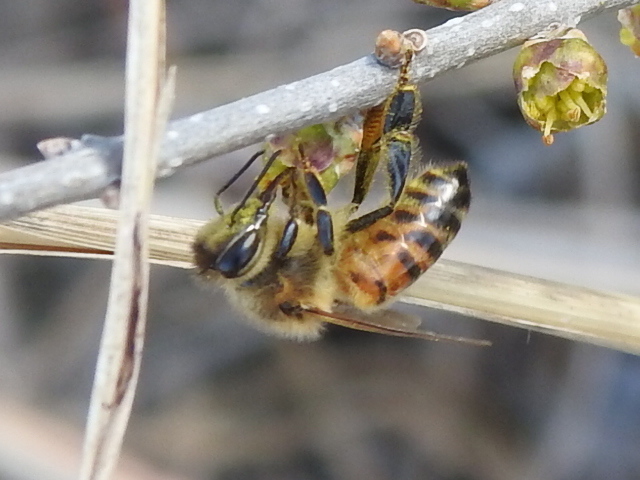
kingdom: Animalia
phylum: Arthropoda
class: Insecta
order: Hymenoptera
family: Apidae
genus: Apis
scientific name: Apis mellifera
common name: Honey bee
